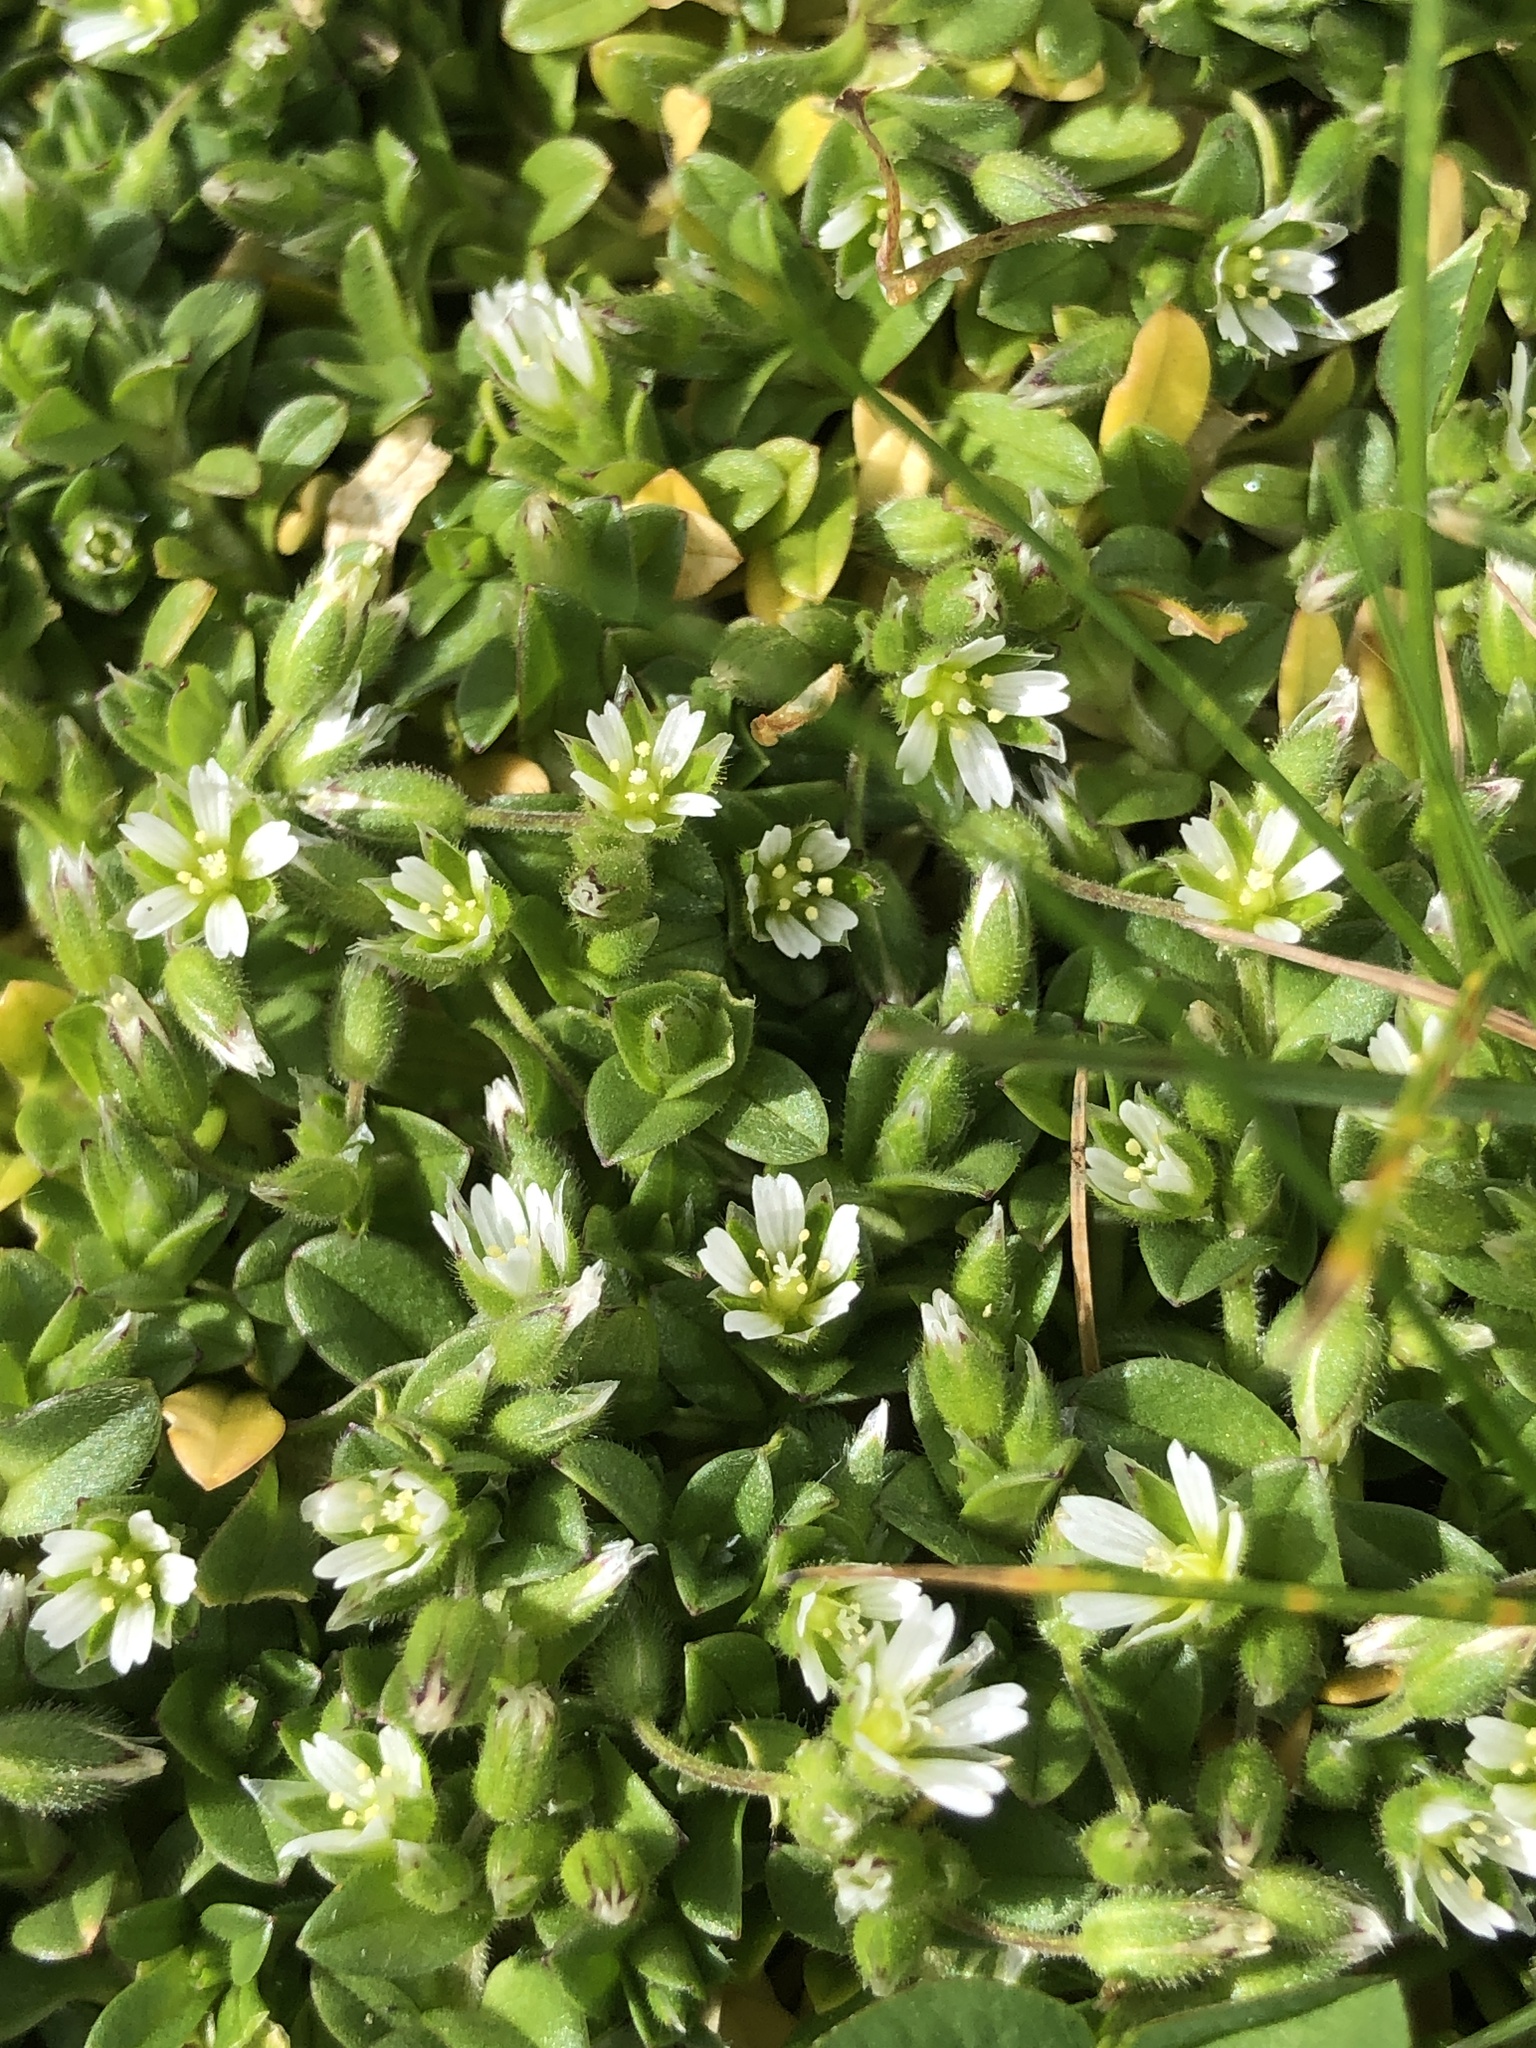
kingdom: Plantae
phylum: Tracheophyta
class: Magnoliopsida
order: Caryophyllales
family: Caryophyllaceae
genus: Cerastium
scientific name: Cerastium semidecandrum
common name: Little mouse-ear
